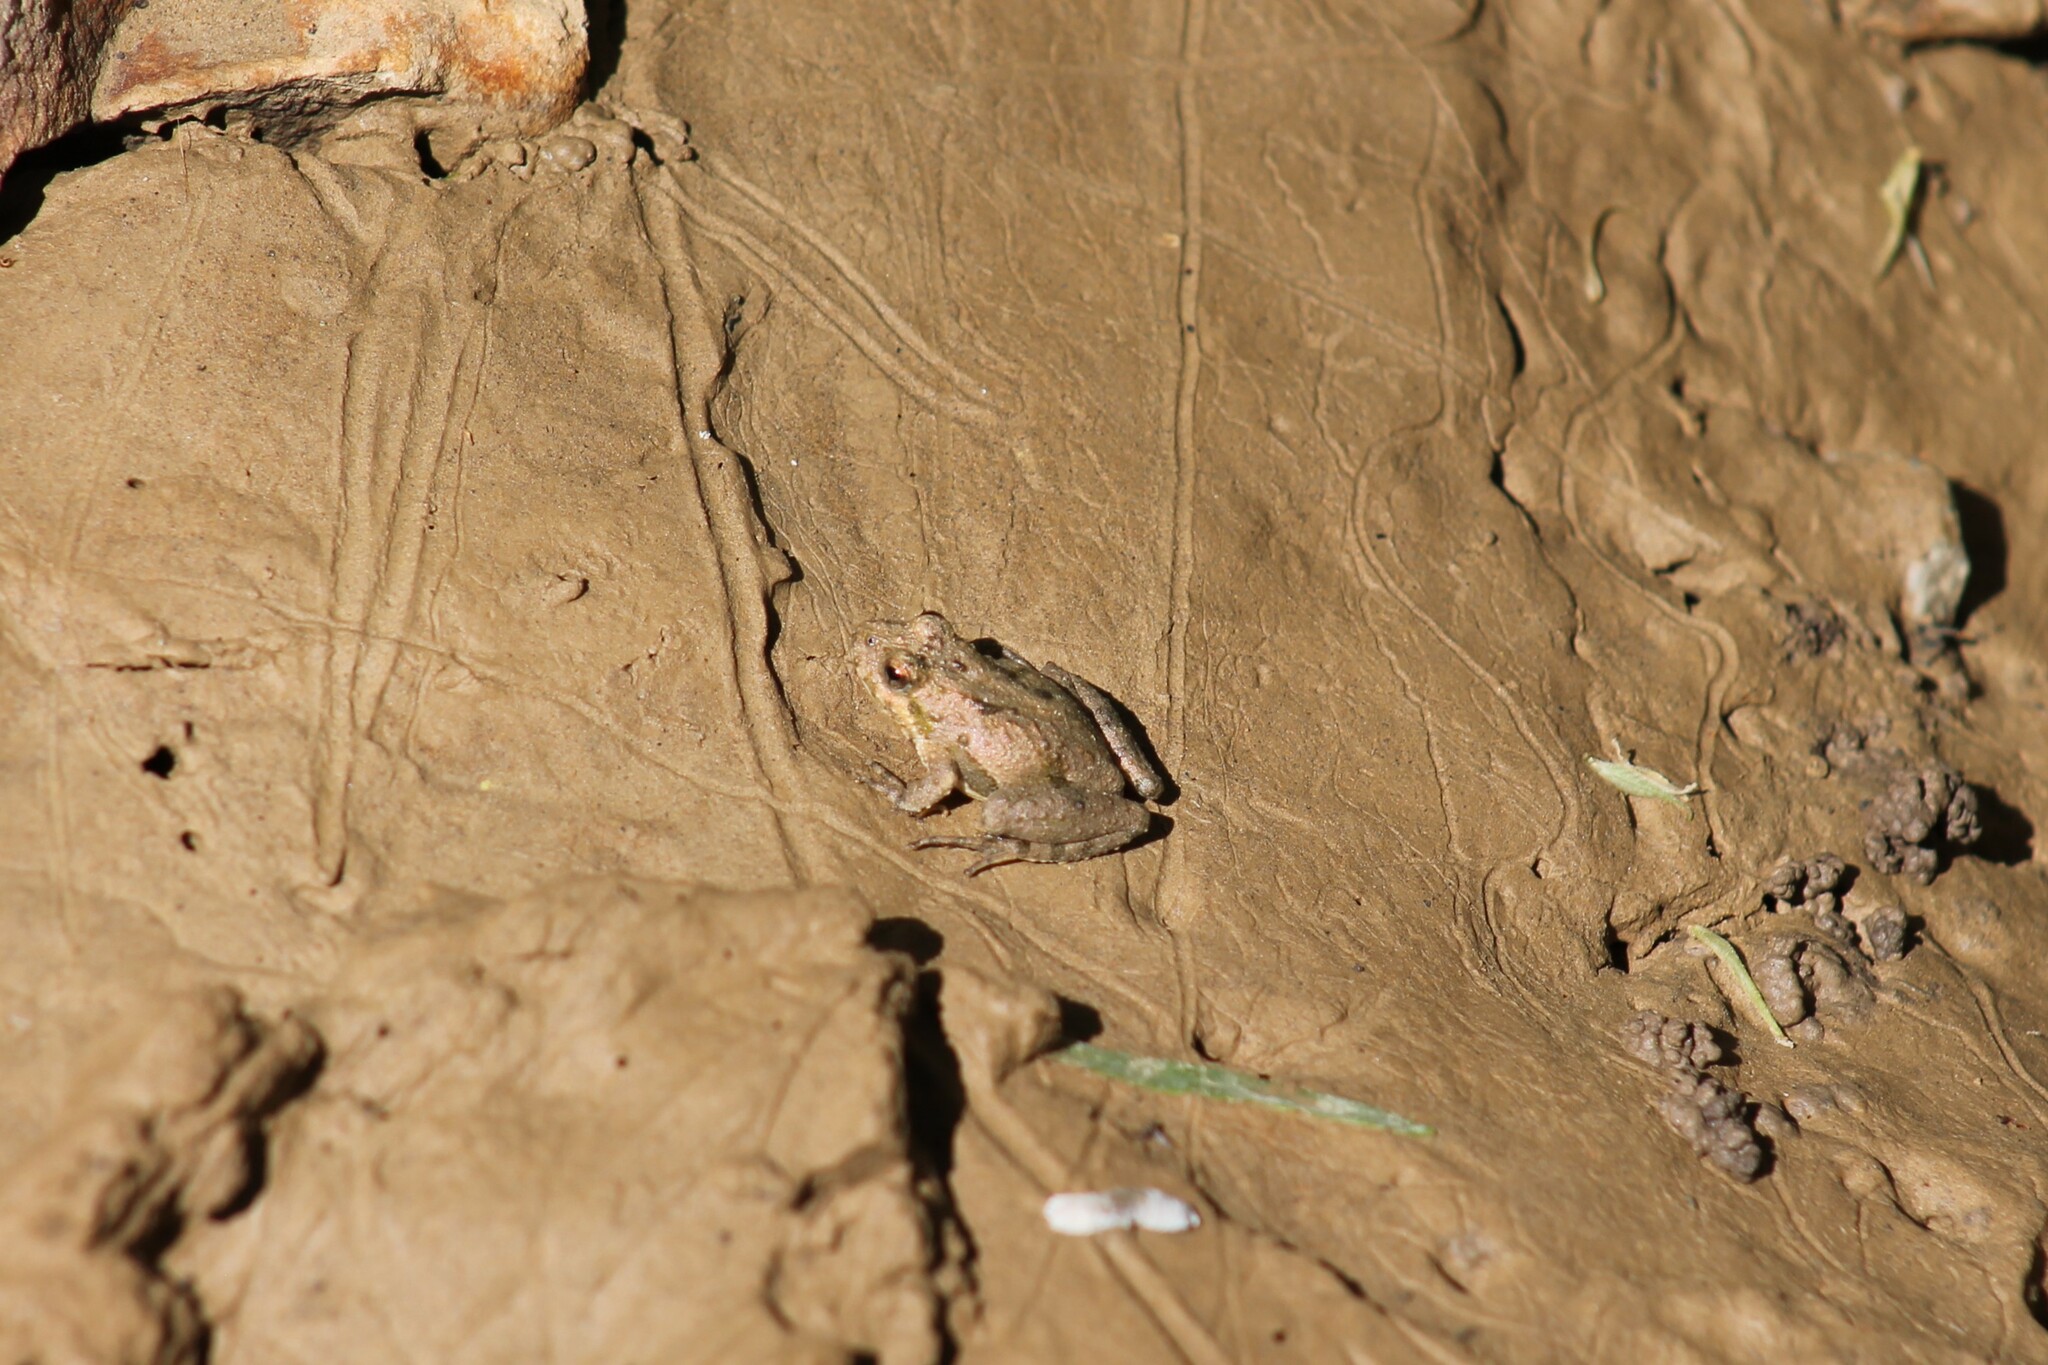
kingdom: Animalia
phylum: Chordata
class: Amphibia
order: Anura
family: Hylidae
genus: Acris
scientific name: Acris crepitans
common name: Northern cricket frog
